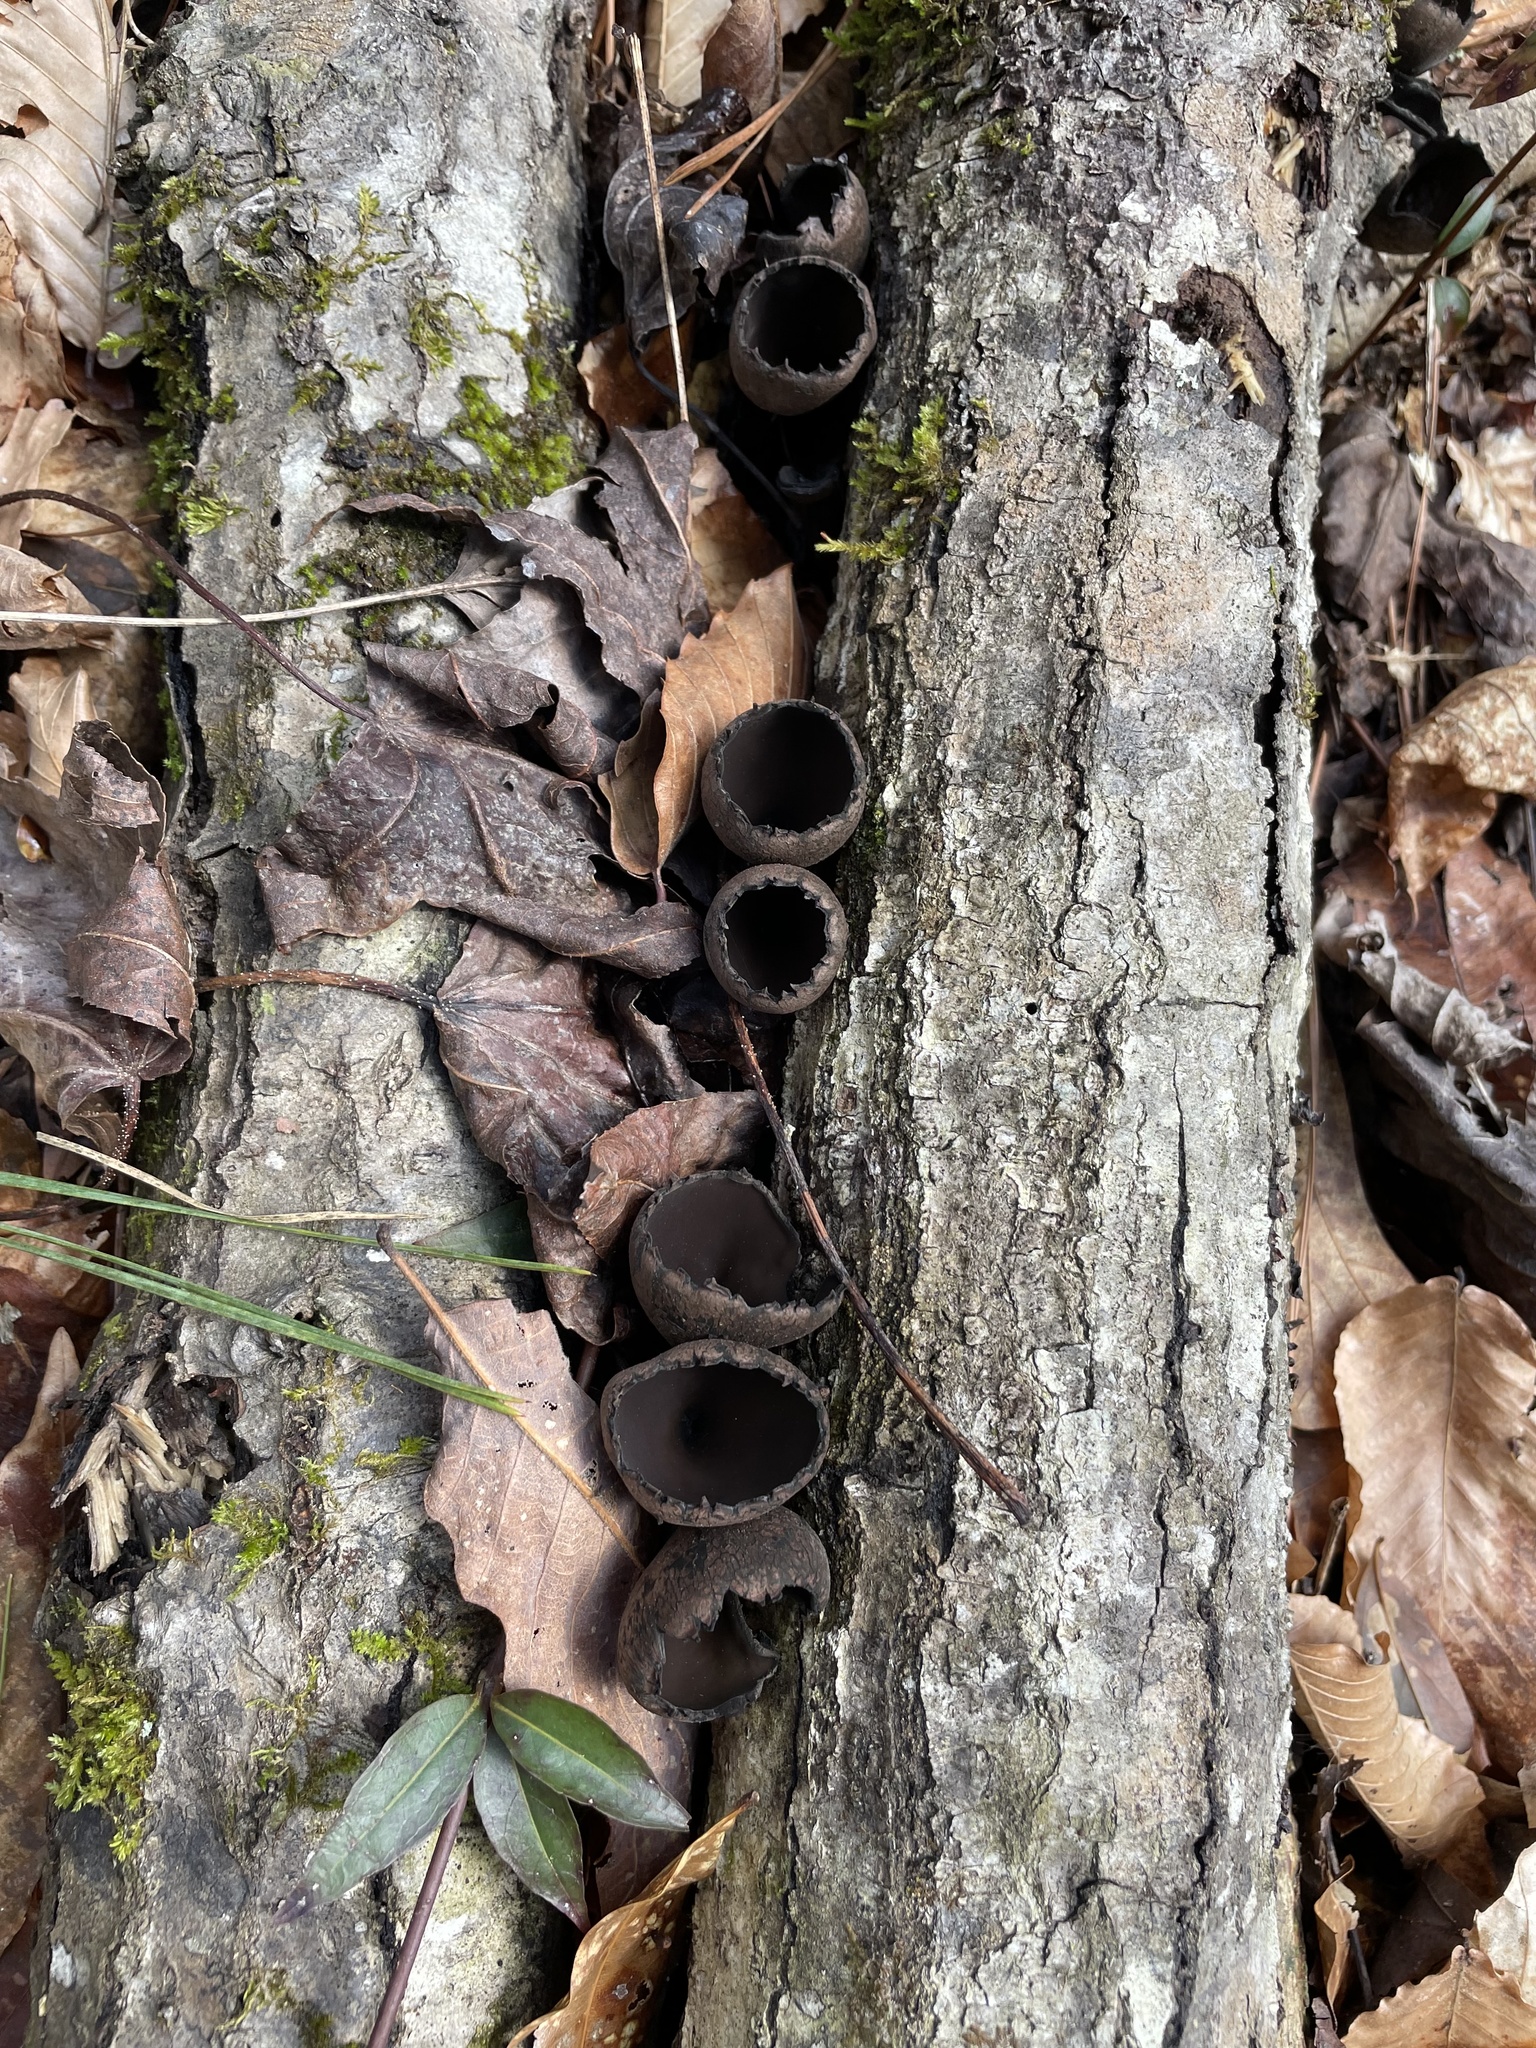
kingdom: Fungi
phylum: Ascomycota
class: Pezizomycetes
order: Pezizales
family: Sarcosomataceae
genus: Urnula
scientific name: Urnula craterium
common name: Devil's urn
